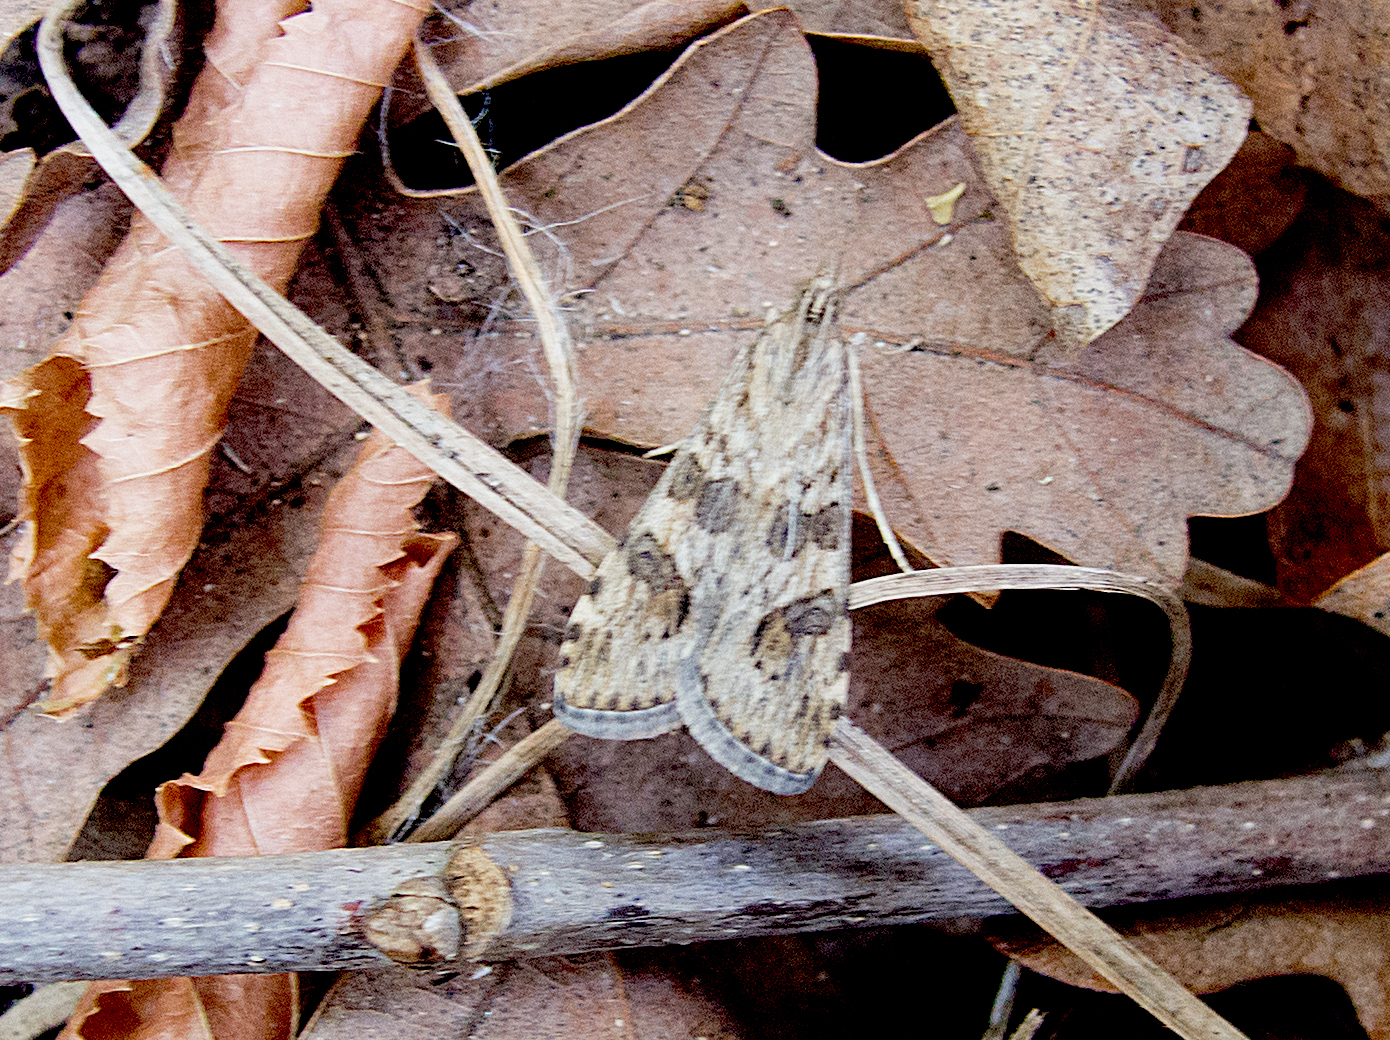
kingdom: Animalia
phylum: Arthropoda
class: Insecta
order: Lepidoptera
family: Crambidae
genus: Nomophila
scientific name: Nomophila noctuella
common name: Rush veneer
